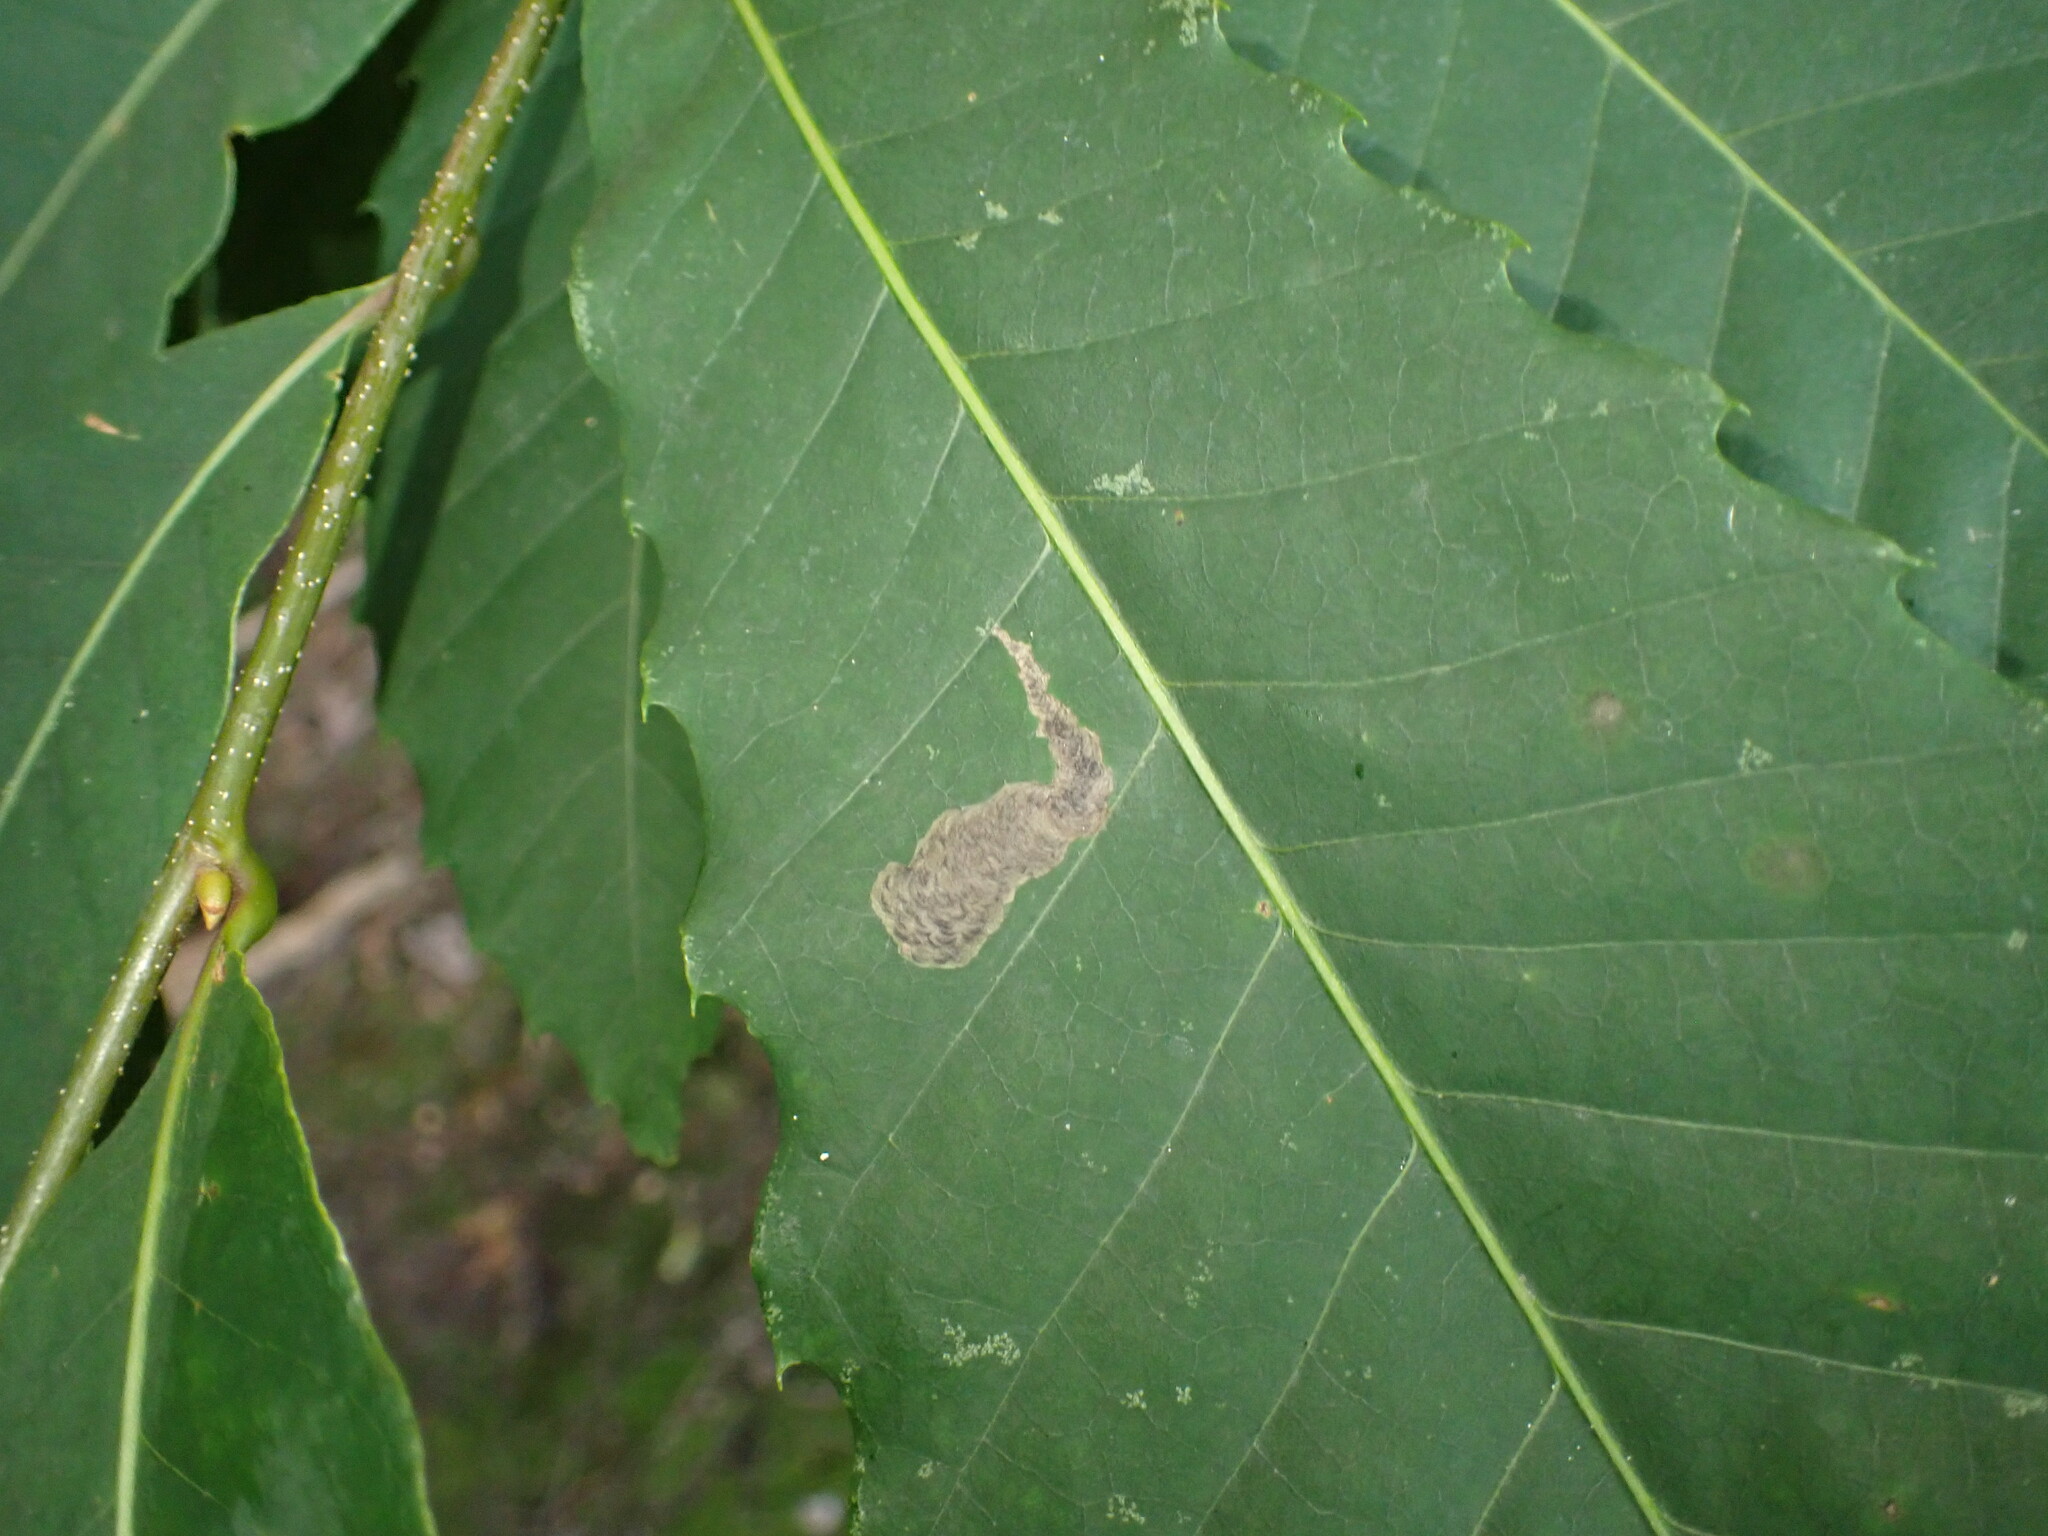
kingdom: Animalia
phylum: Arthropoda
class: Insecta
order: Lepidoptera
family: Tischeriidae
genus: Coptotriche
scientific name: Coptotriche castaneaeella
